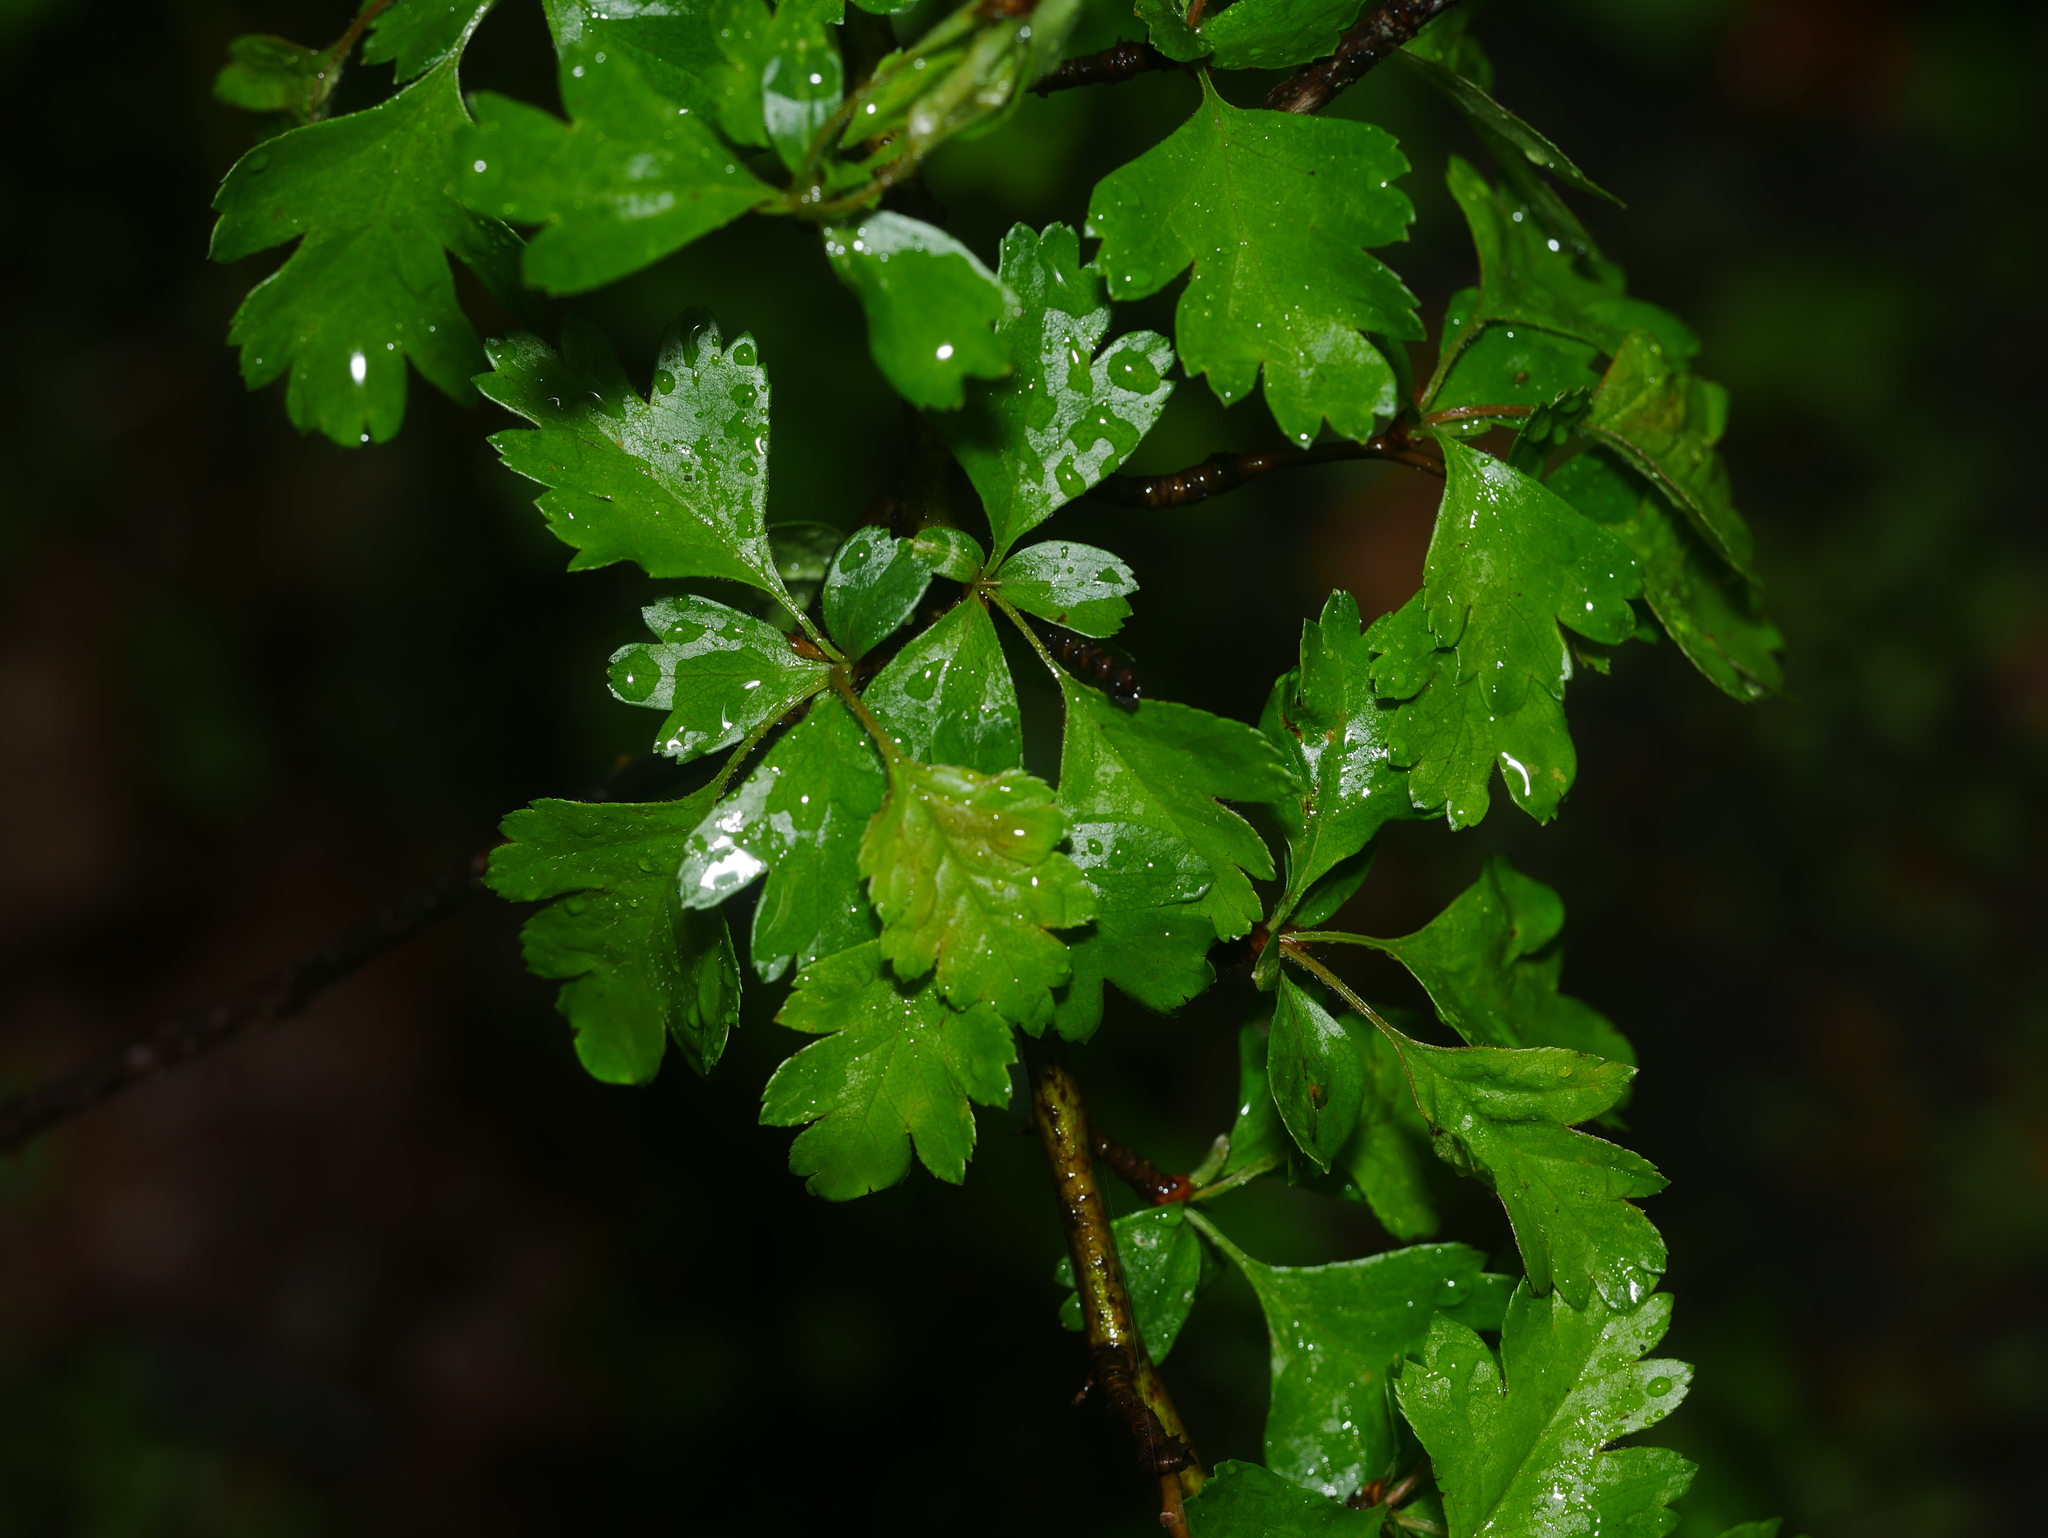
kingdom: Plantae
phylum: Tracheophyta
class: Magnoliopsida
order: Rosales
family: Rosaceae
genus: Crataegus
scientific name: Crataegus monogyna
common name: Hawthorn
